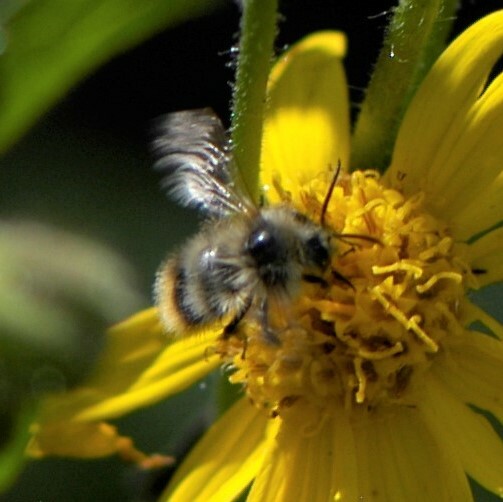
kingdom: Animalia
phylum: Arthropoda
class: Insecta
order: Hymenoptera
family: Apidae
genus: Bombus
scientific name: Bombus mixtus
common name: Fuzzy-horned bumble bee
